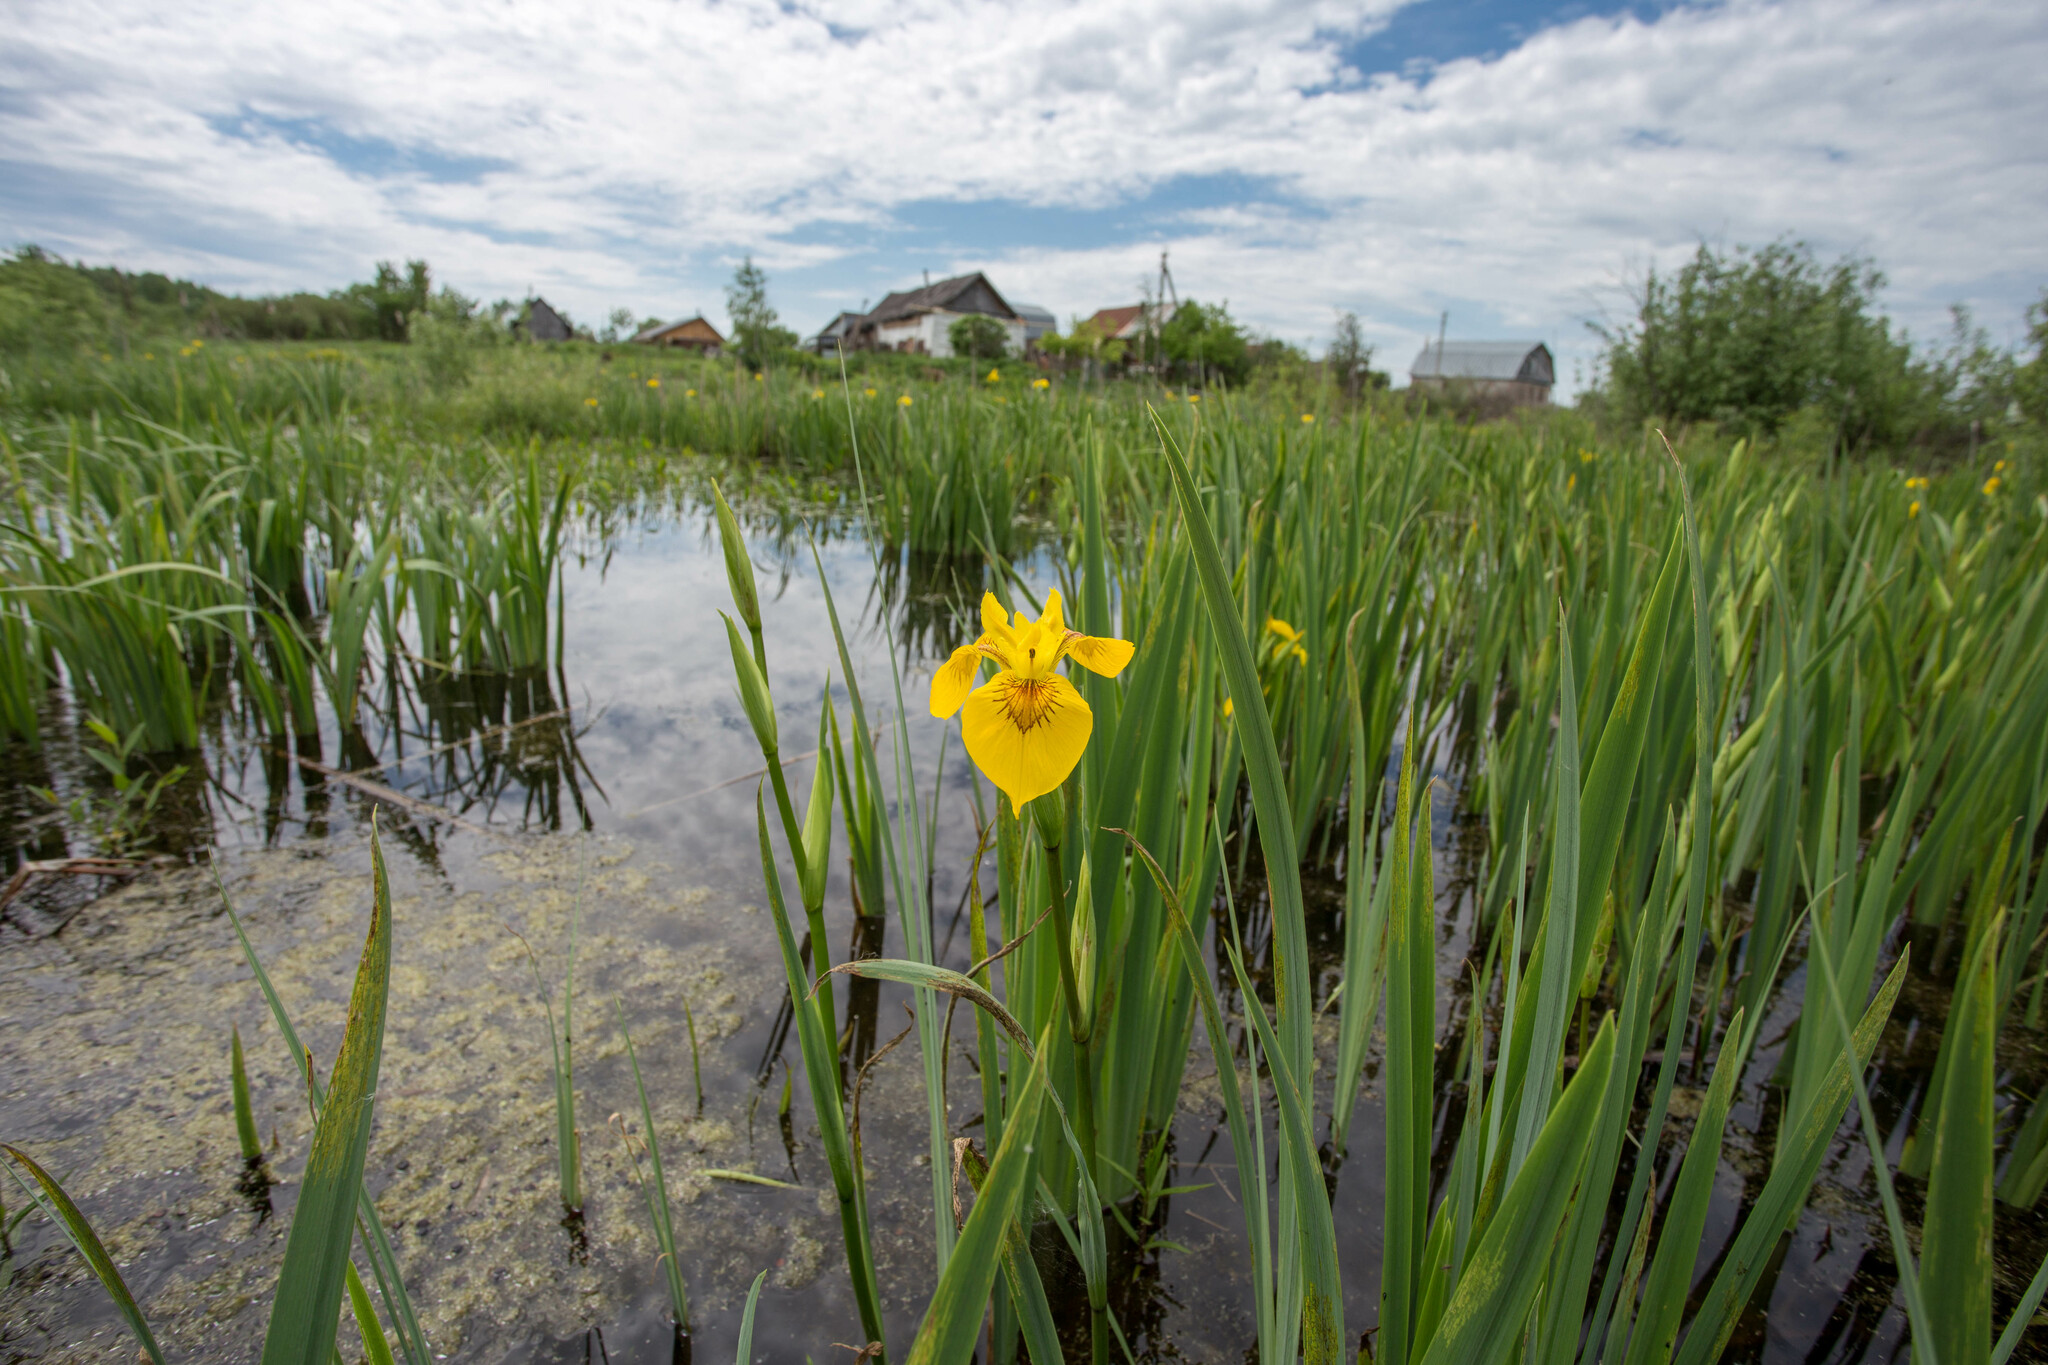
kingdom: Plantae
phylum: Tracheophyta
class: Liliopsida
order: Asparagales
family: Iridaceae
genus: Iris
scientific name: Iris pseudacorus
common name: Yellow flag
